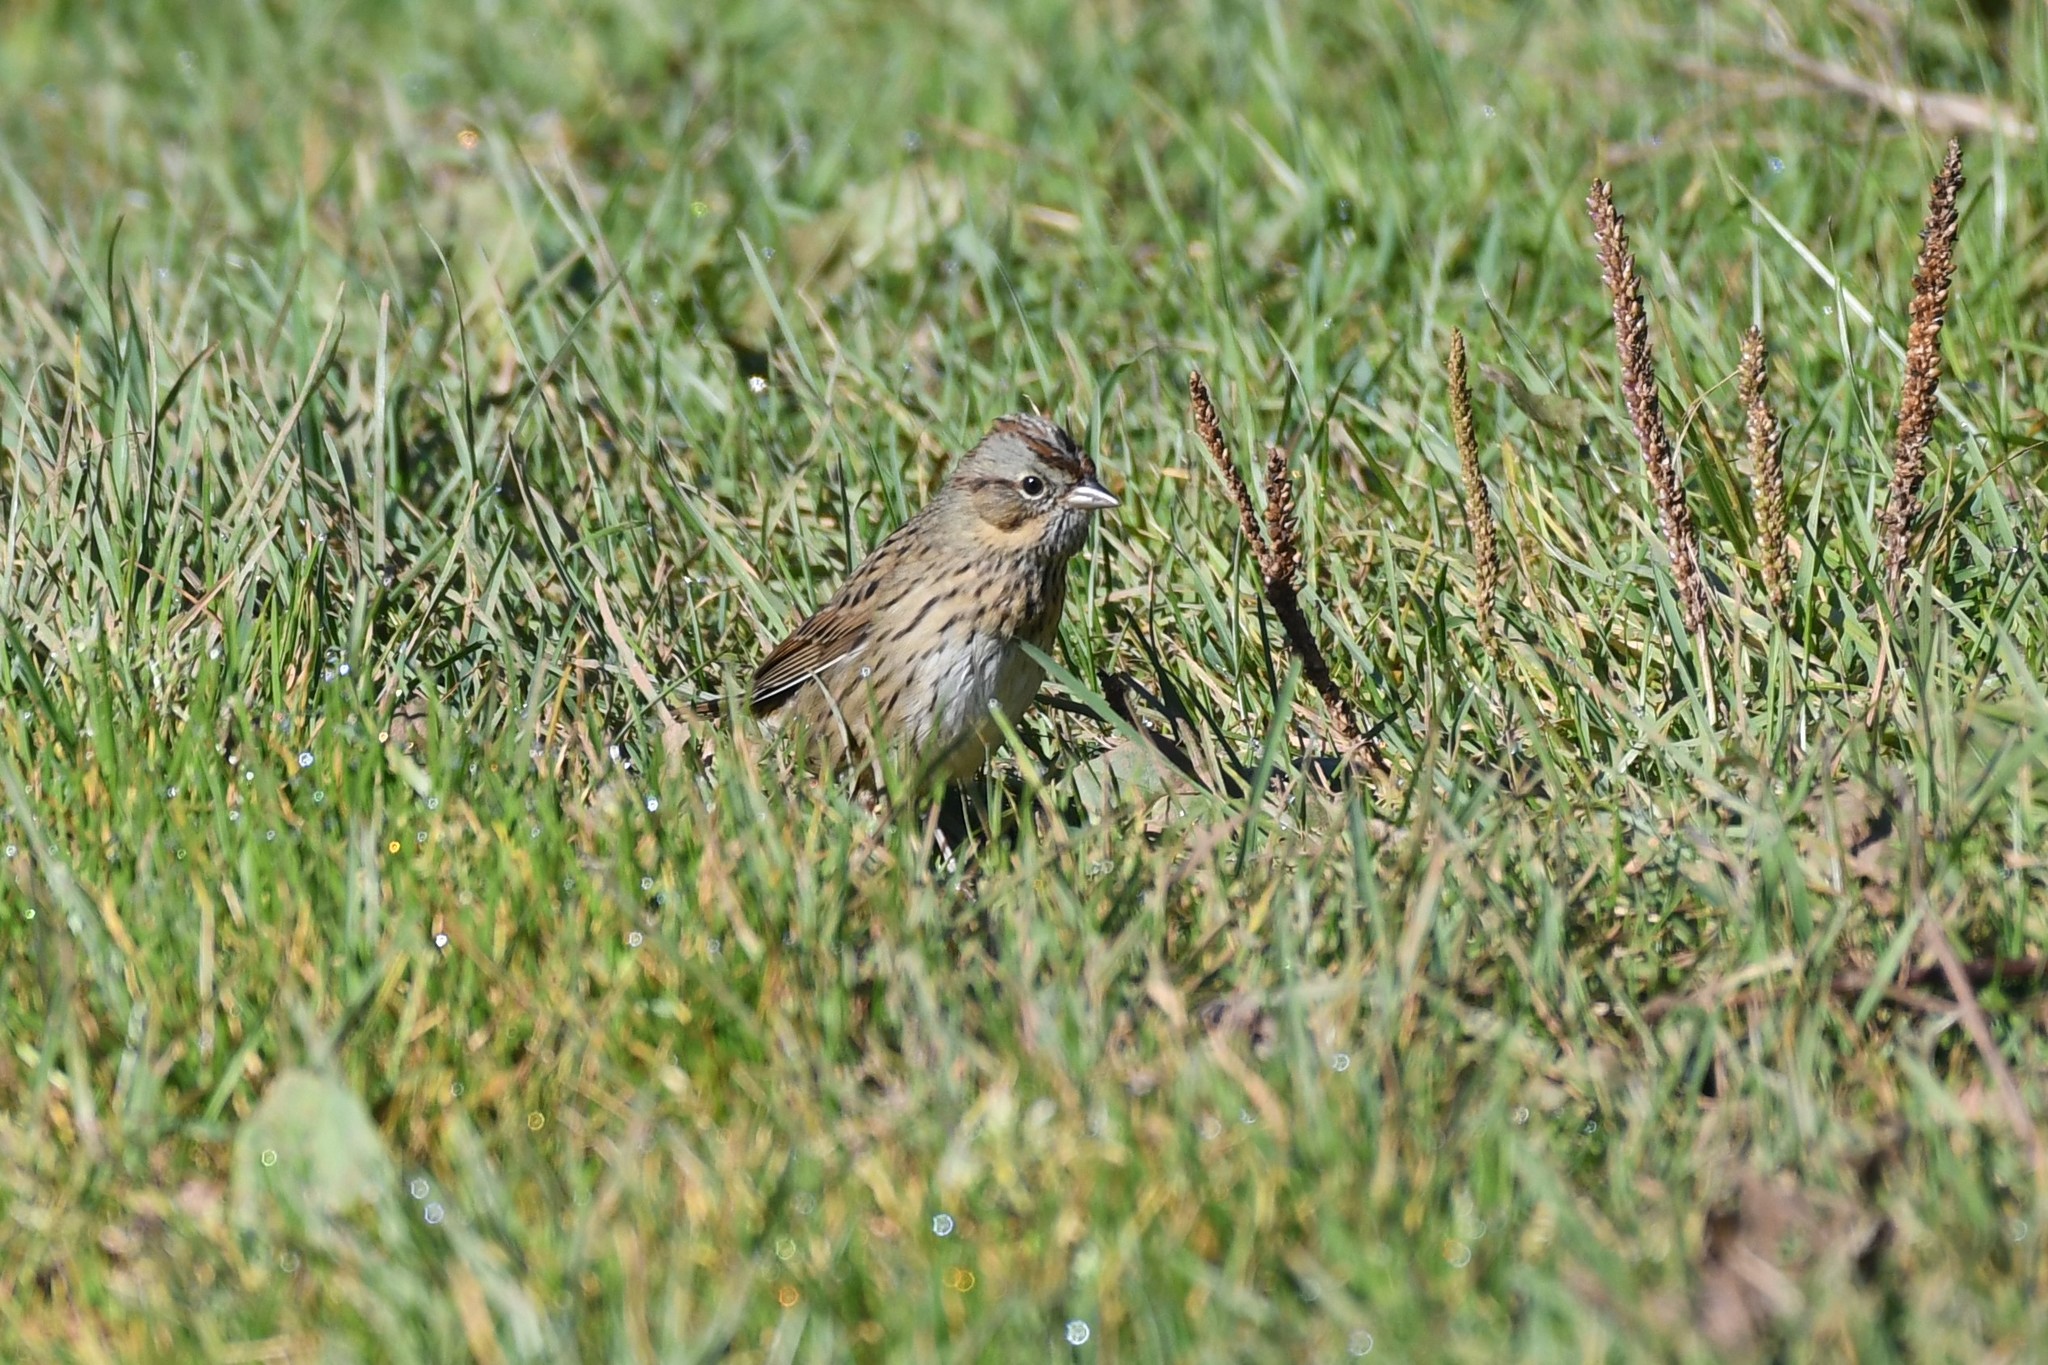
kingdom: Animalia
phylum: Chordata
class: Aves
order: Passeriformes
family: Passerellidae
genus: Melospiza
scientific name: Melospiza lincolnii
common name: Lincoln's sparrow
